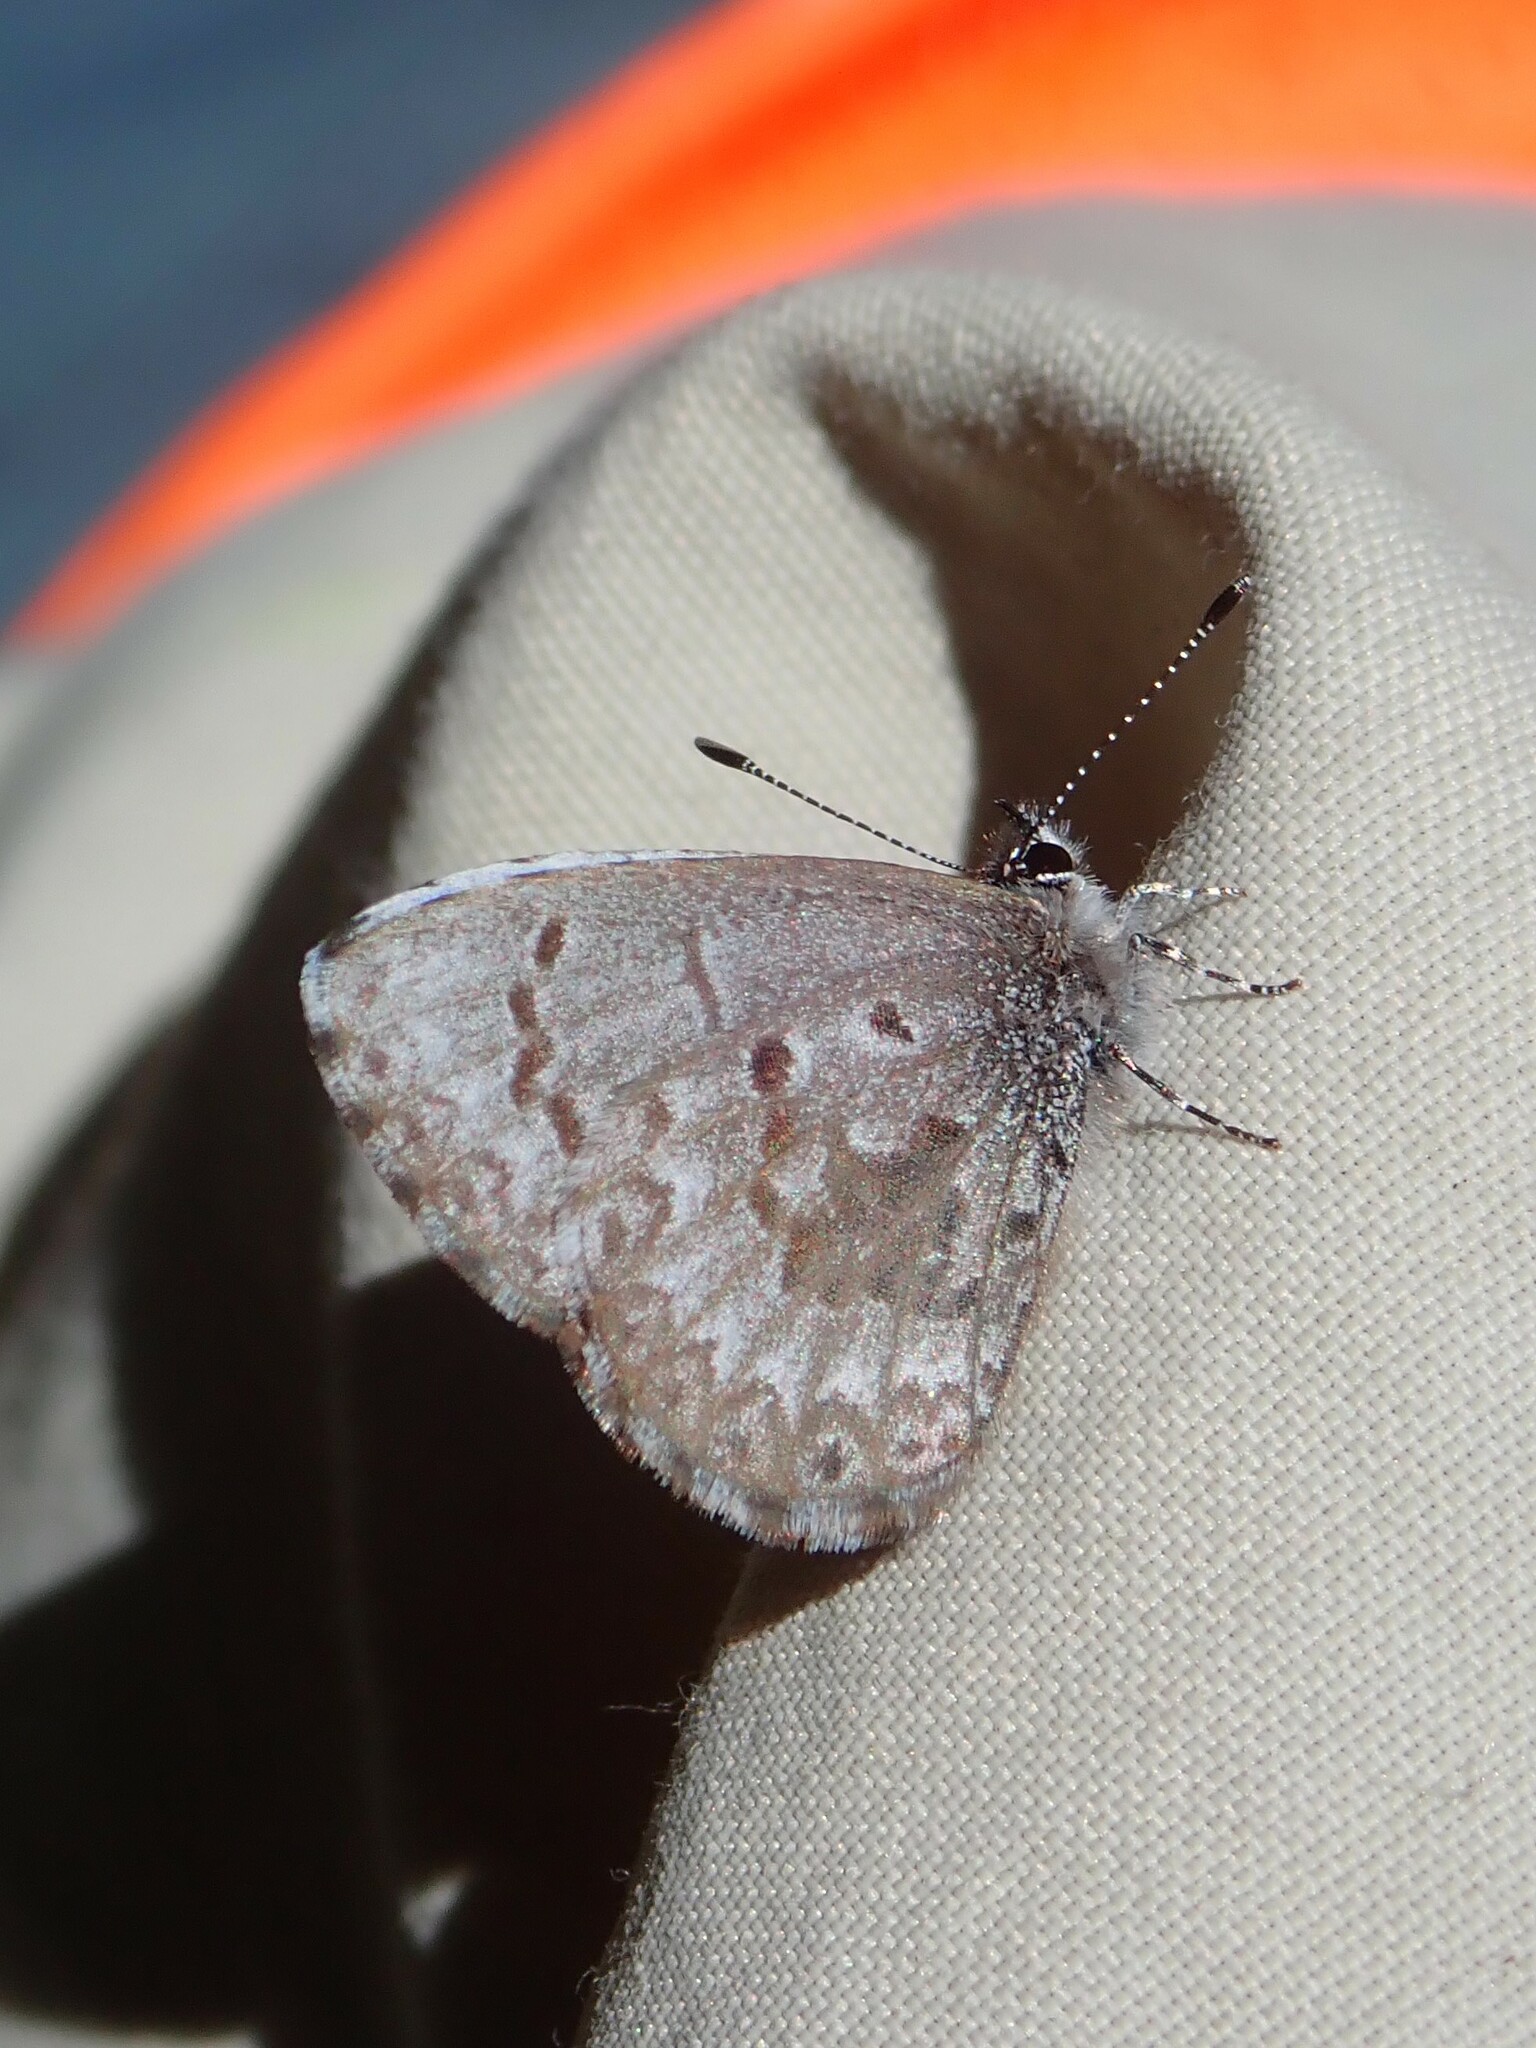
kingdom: Animalia
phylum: Arthropoda
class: Insecta
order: Lepidoptera
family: Lycaenidae
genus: Celastrina
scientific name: Celastrina lucia
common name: Lucia azure
